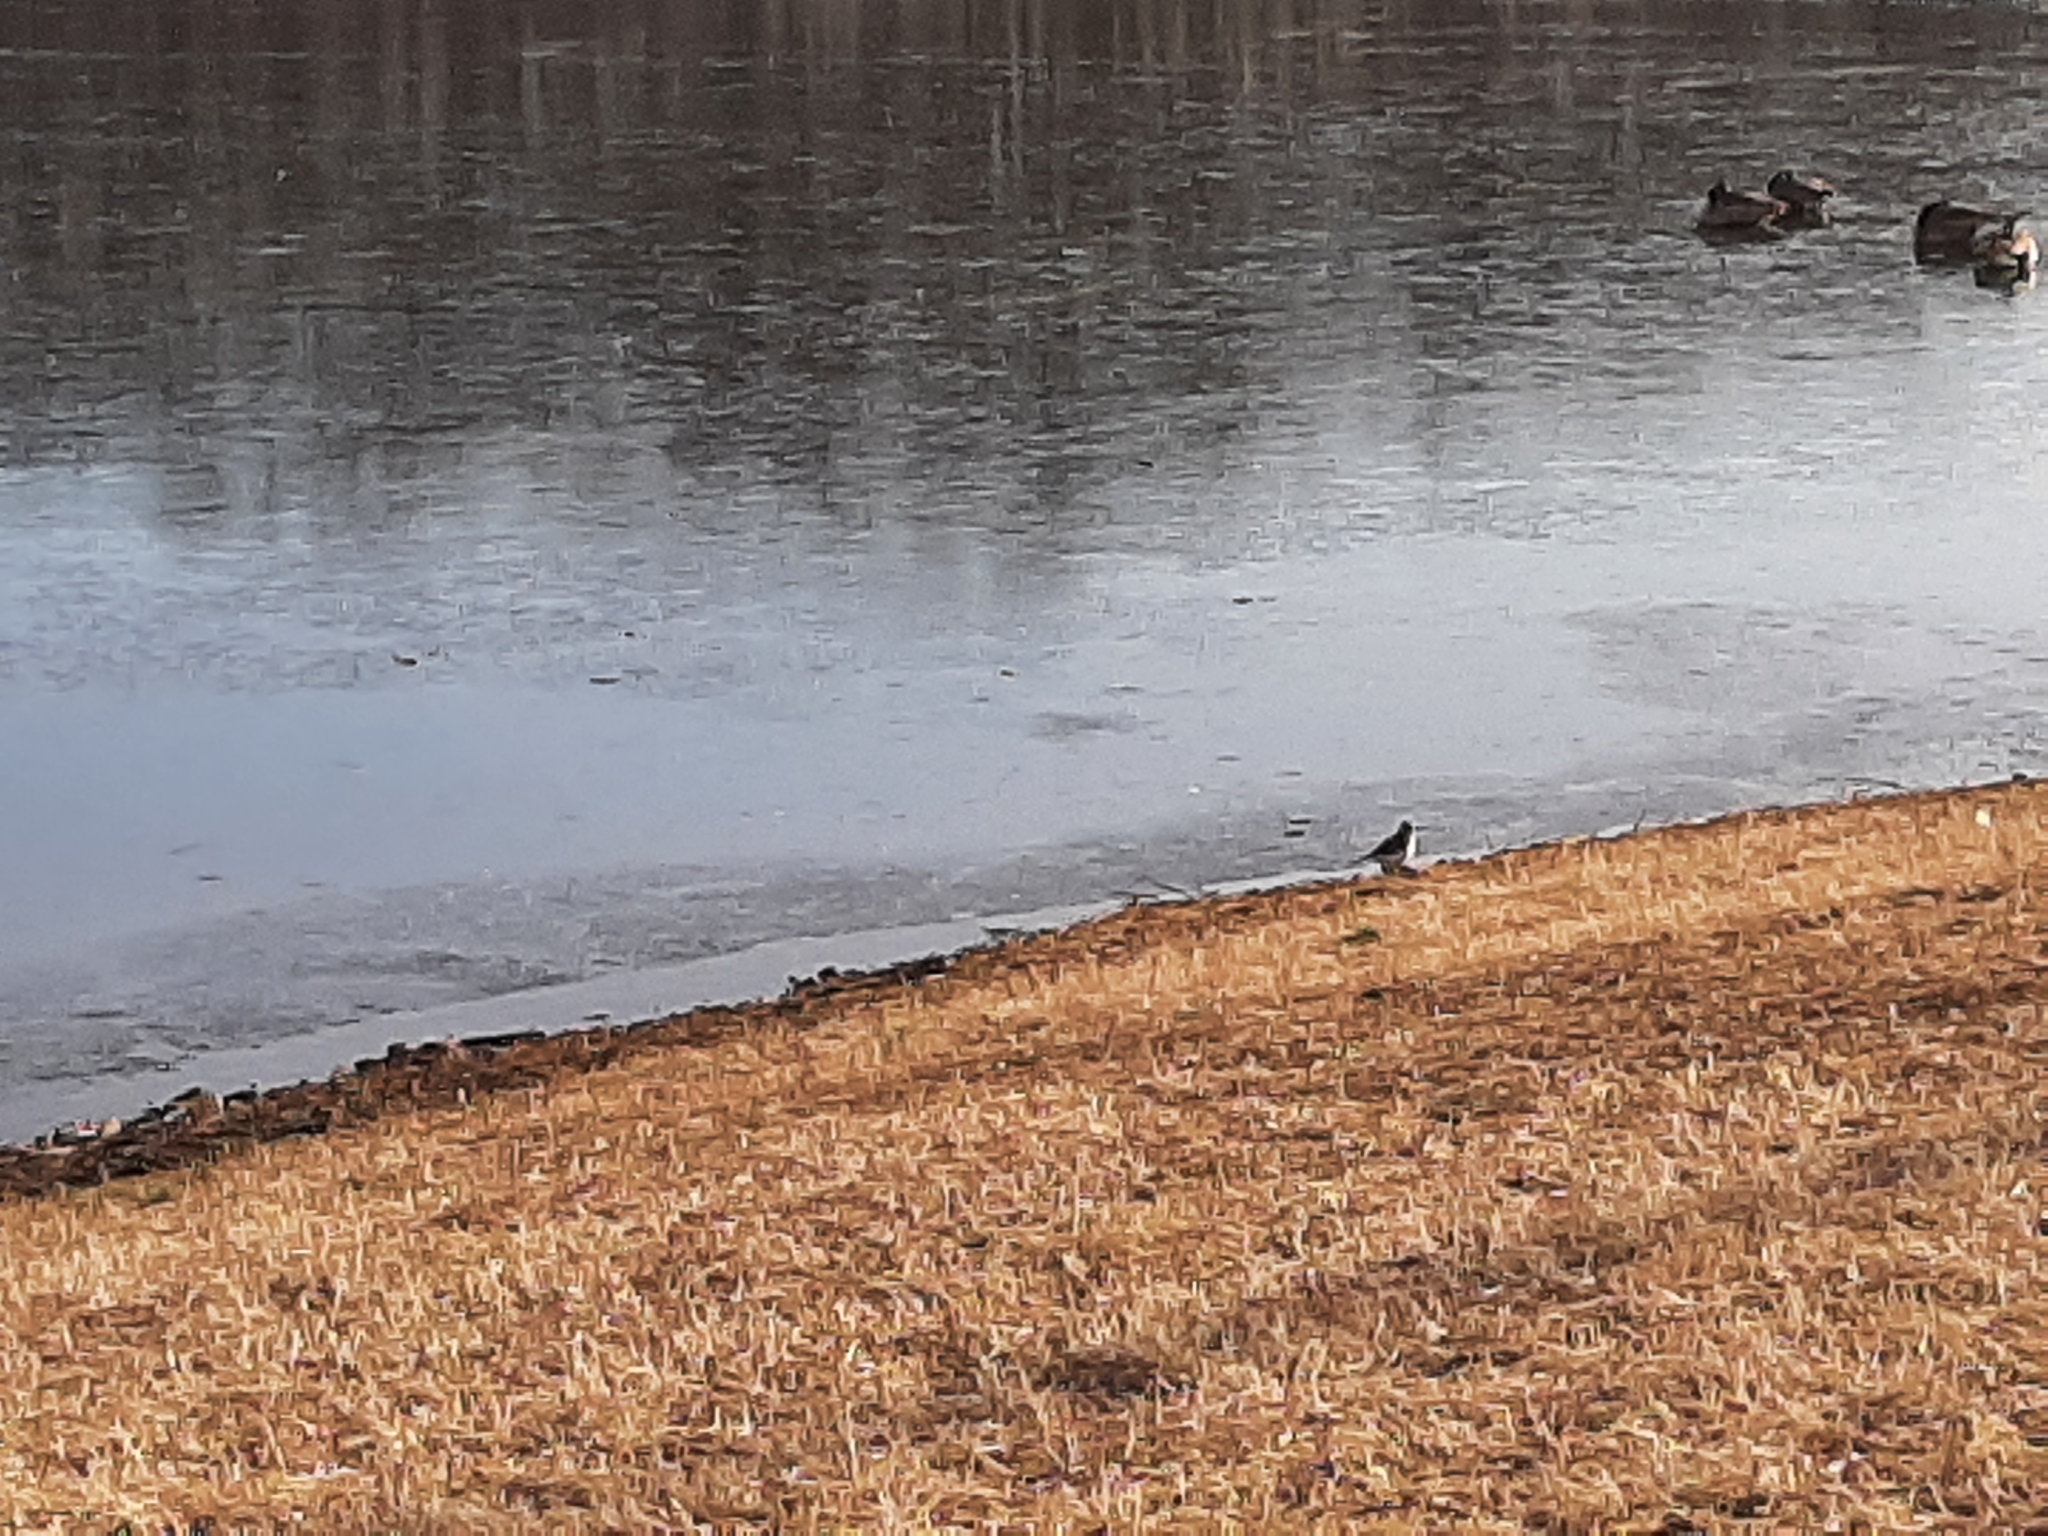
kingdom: Animalia
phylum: Chordata
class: Aves
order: Charadriiformes
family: Charadriidae
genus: Charadrius
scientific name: Charadrius vociferus
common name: Killdeer
